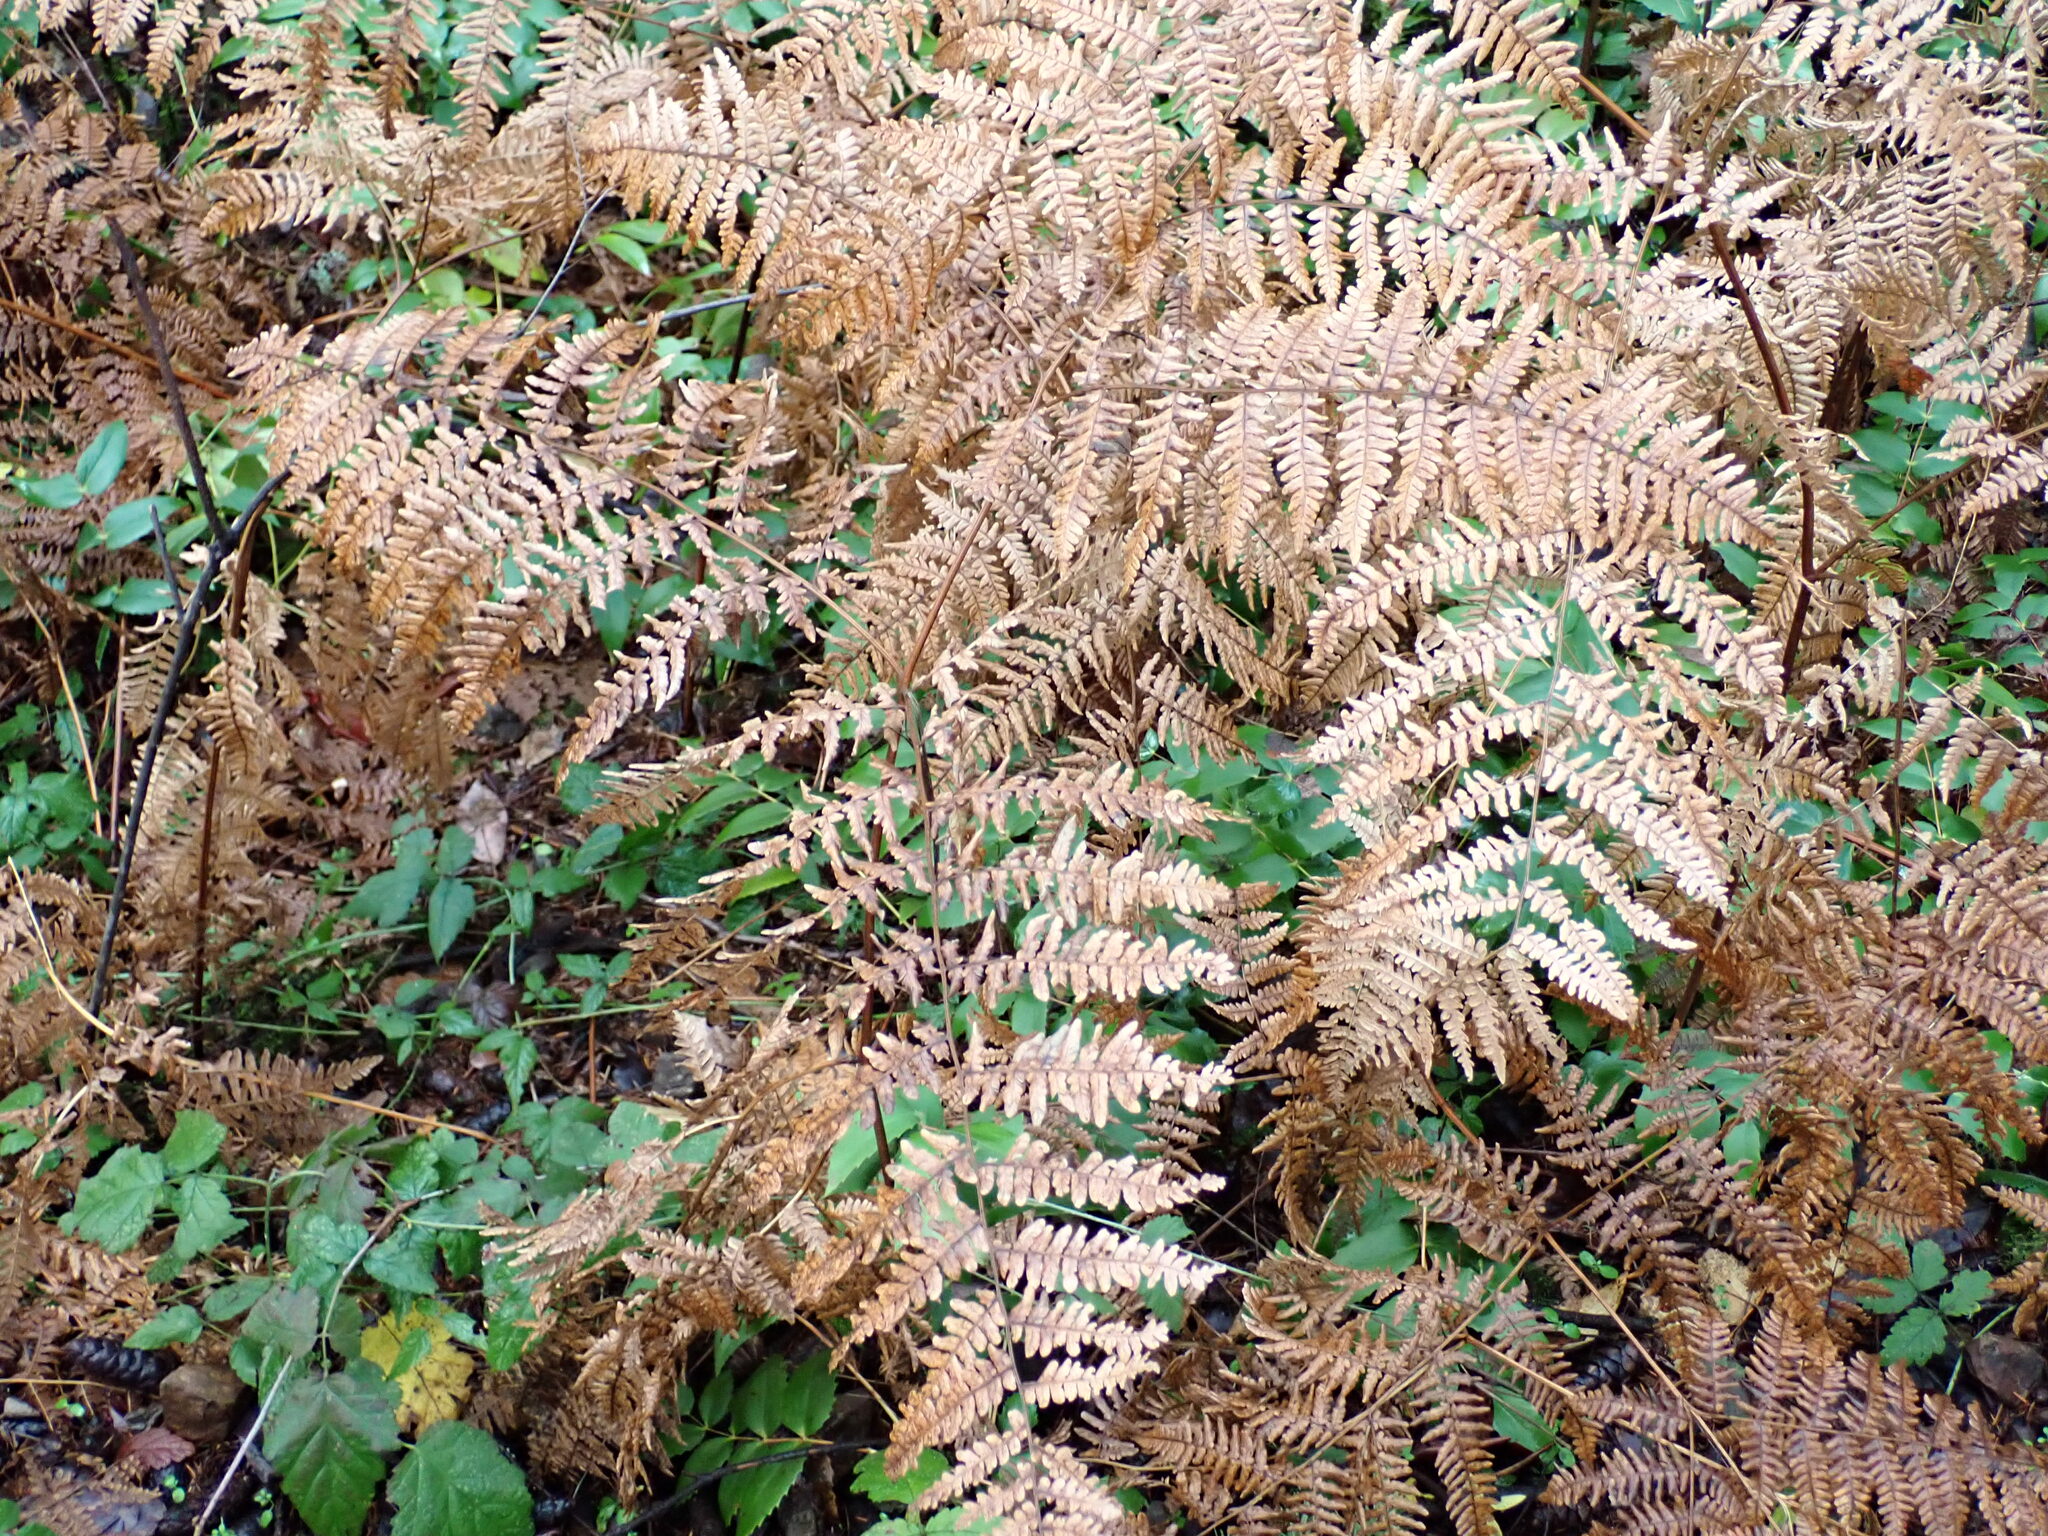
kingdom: Plantae
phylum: Tracheophyta
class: Polypodiopsida
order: Polypodiales
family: Dennstaedtiaceae
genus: Pteridium
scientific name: Pteridium aquilinum
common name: Bracken
